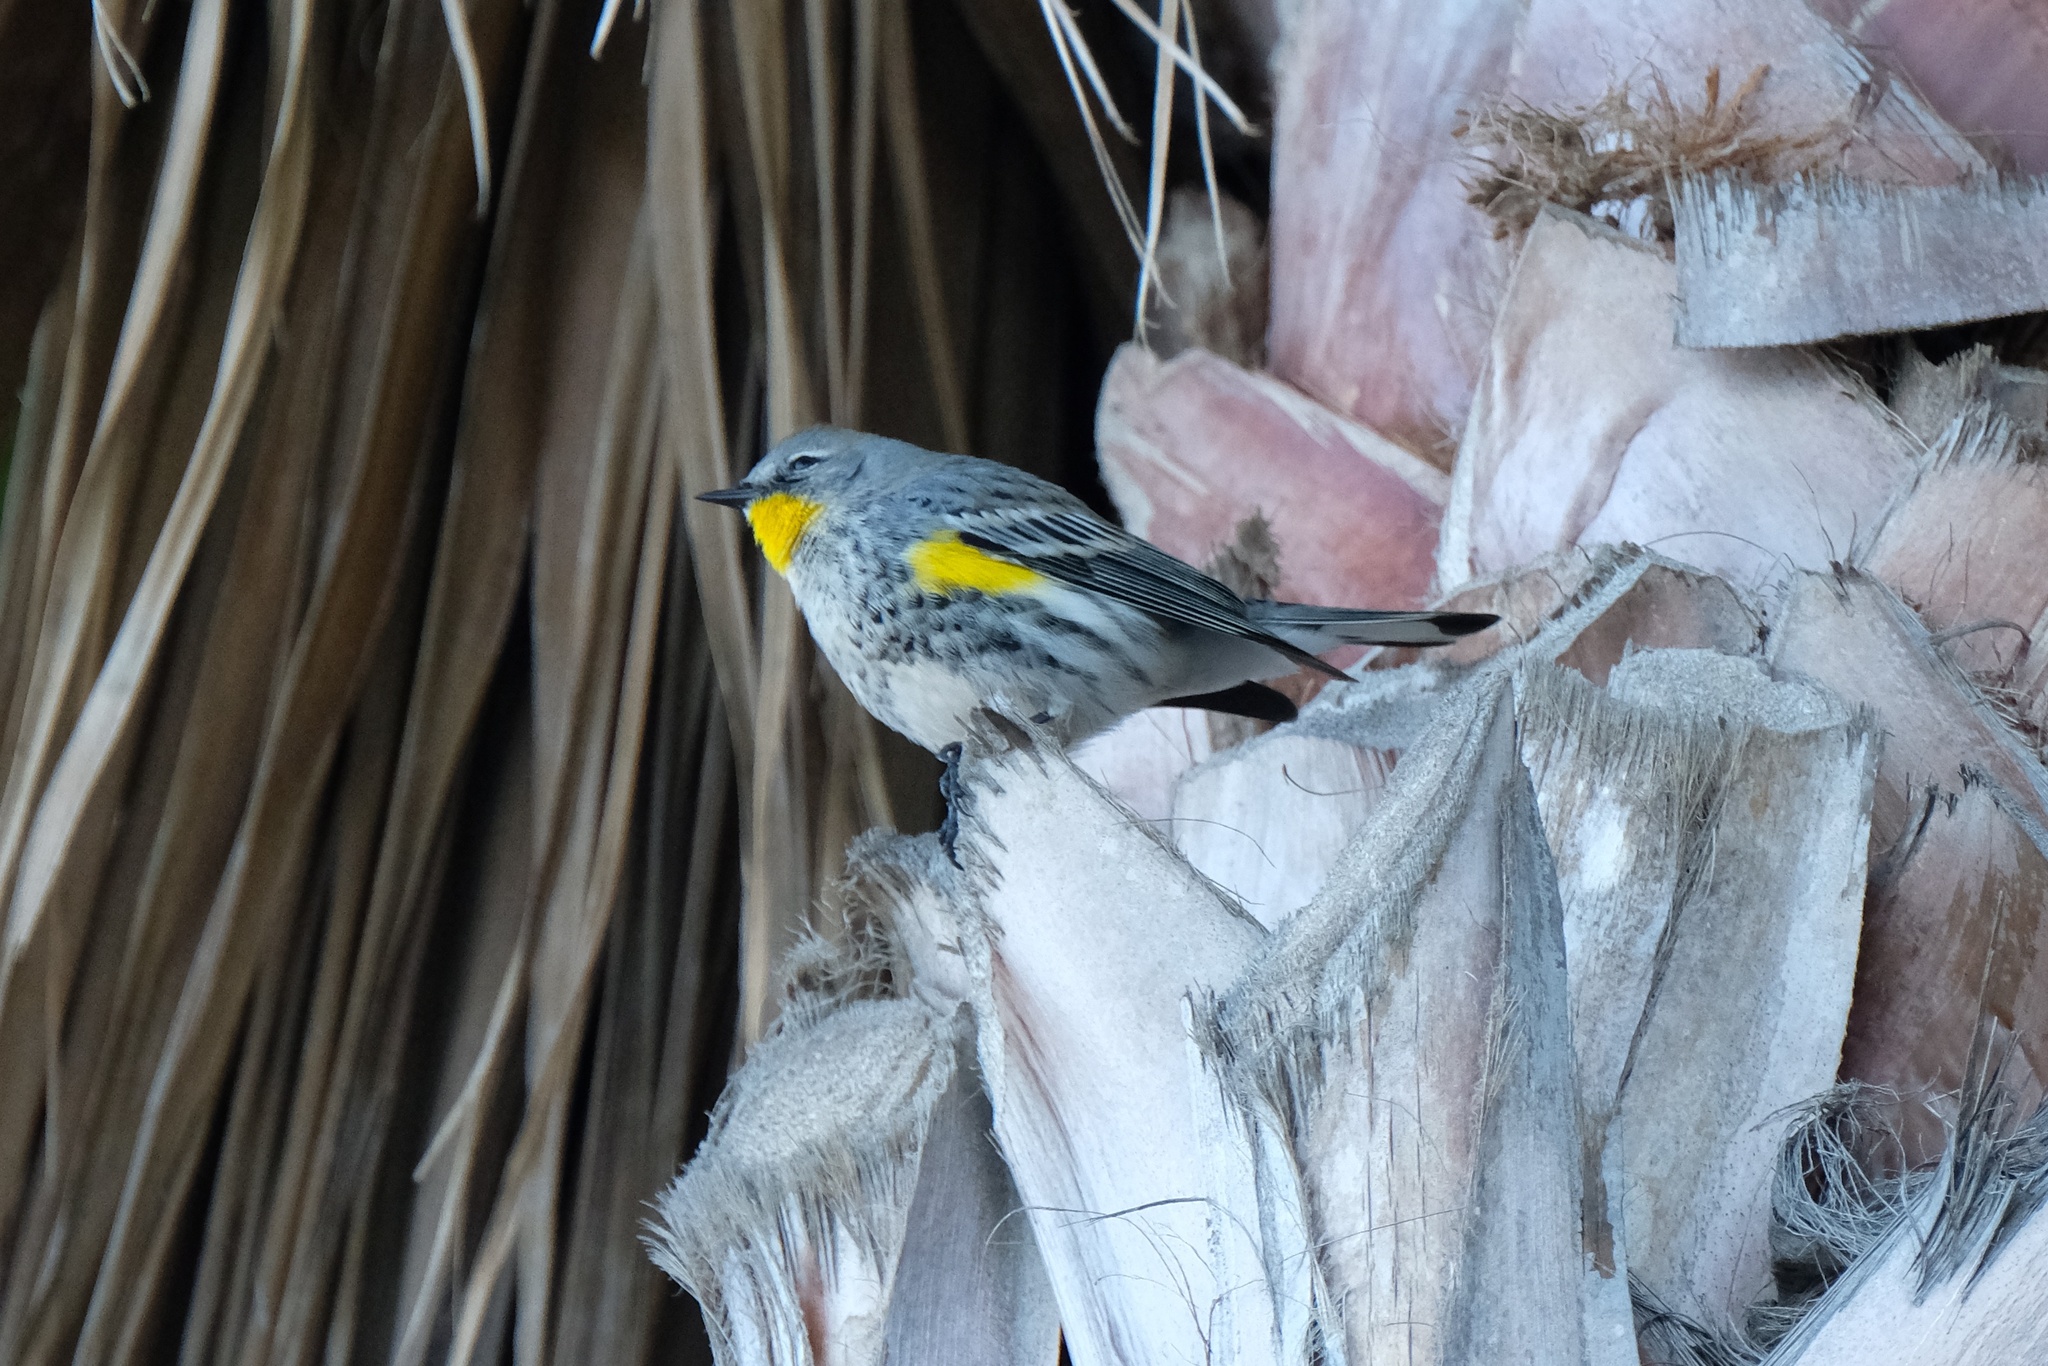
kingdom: Animalia
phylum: Chordata
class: Aves
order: Passeriformes
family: Parulidae
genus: Setophaga
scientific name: Setophaga coronata
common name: Myrtle warbler
